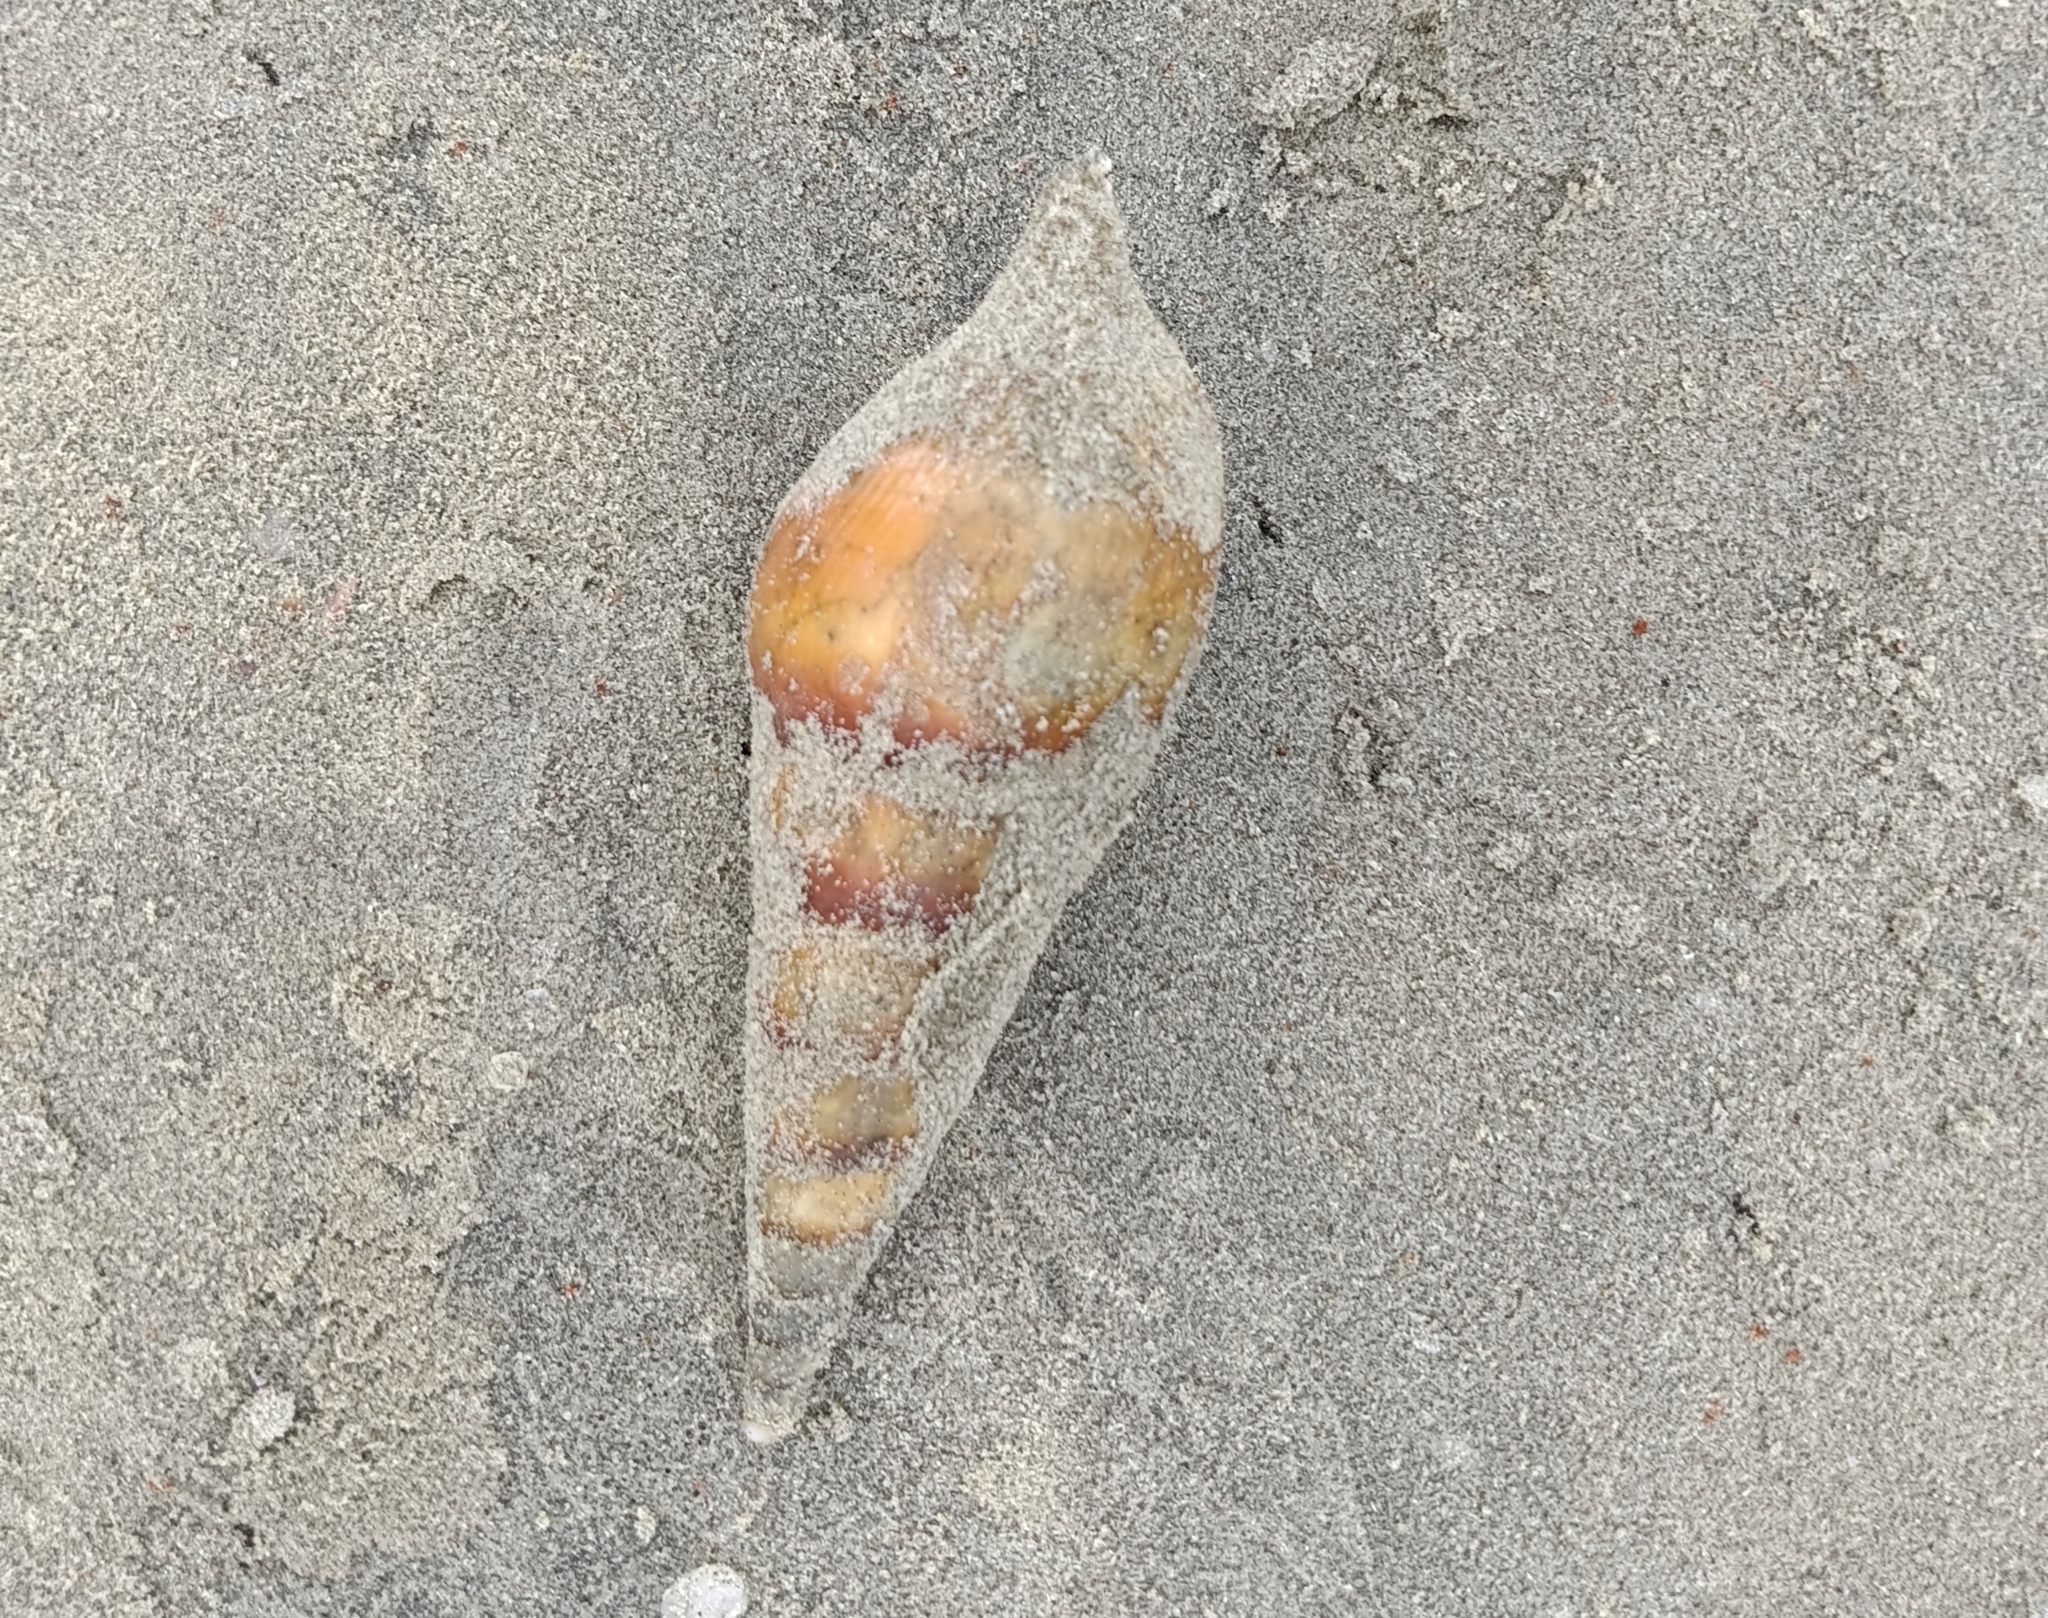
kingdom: Animalia
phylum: Mollusca
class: Gastropoda
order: Littorinimorpha
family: Rostellariidae
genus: Tibia
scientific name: Tibia curta
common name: Indian tibia
